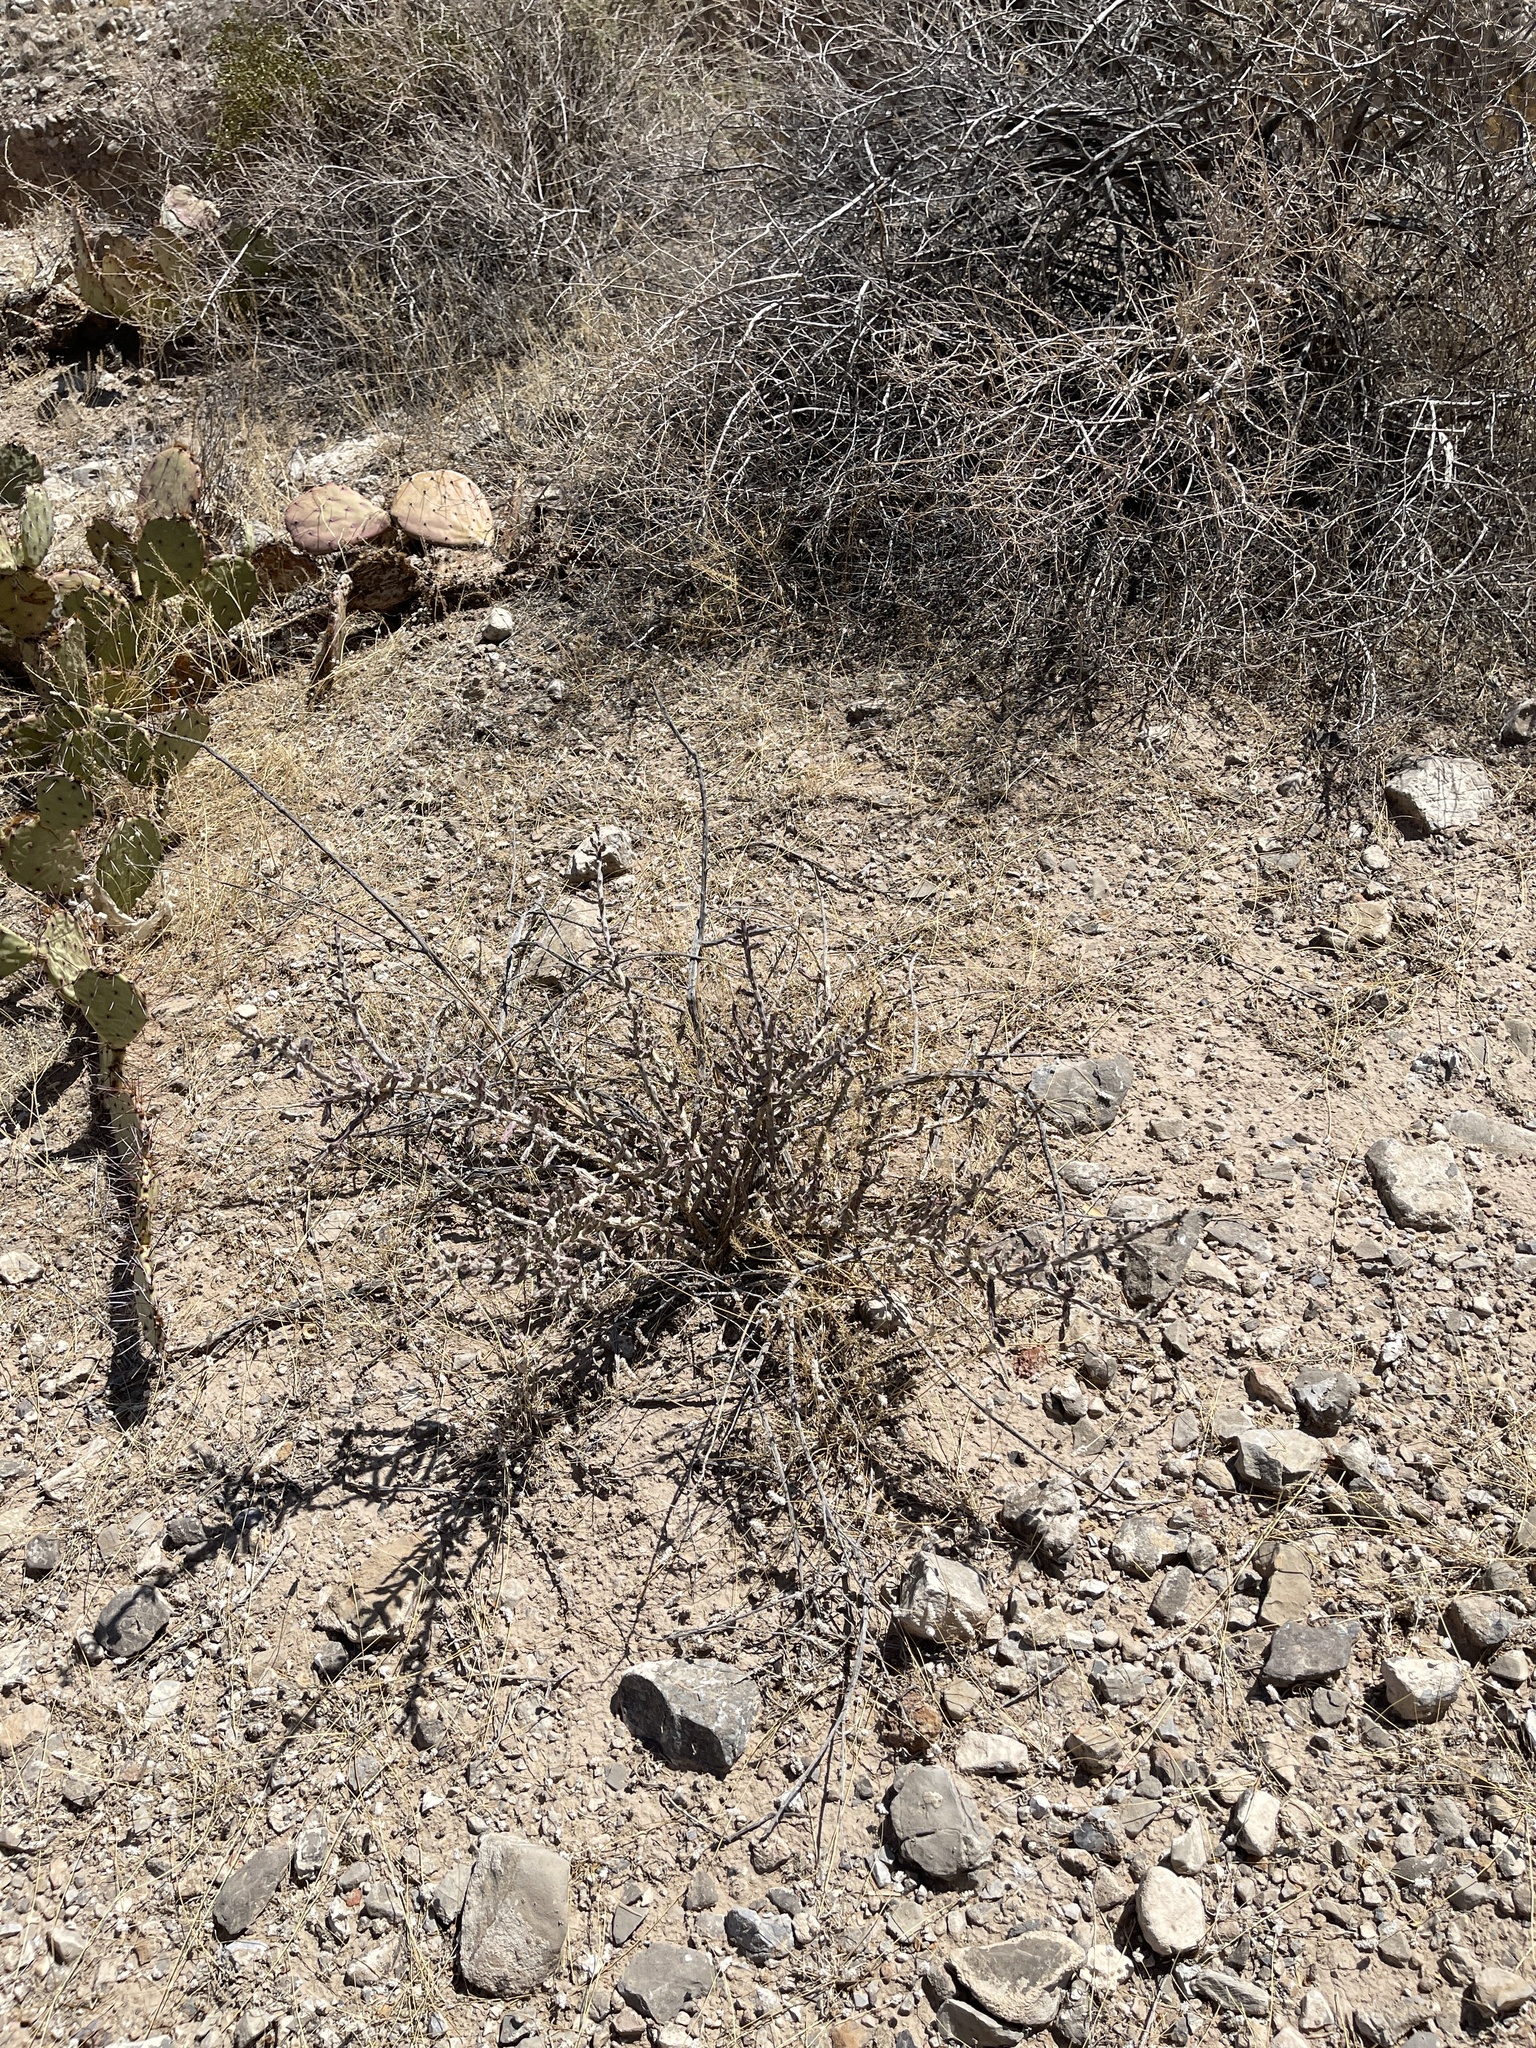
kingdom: Plantae
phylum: Tracheophyta
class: Magnoliopsida
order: Caryophyllales
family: Cactaceae
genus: Cylindropuntia
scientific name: Cylindropuntia leptocaulis
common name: Christmas cactus
